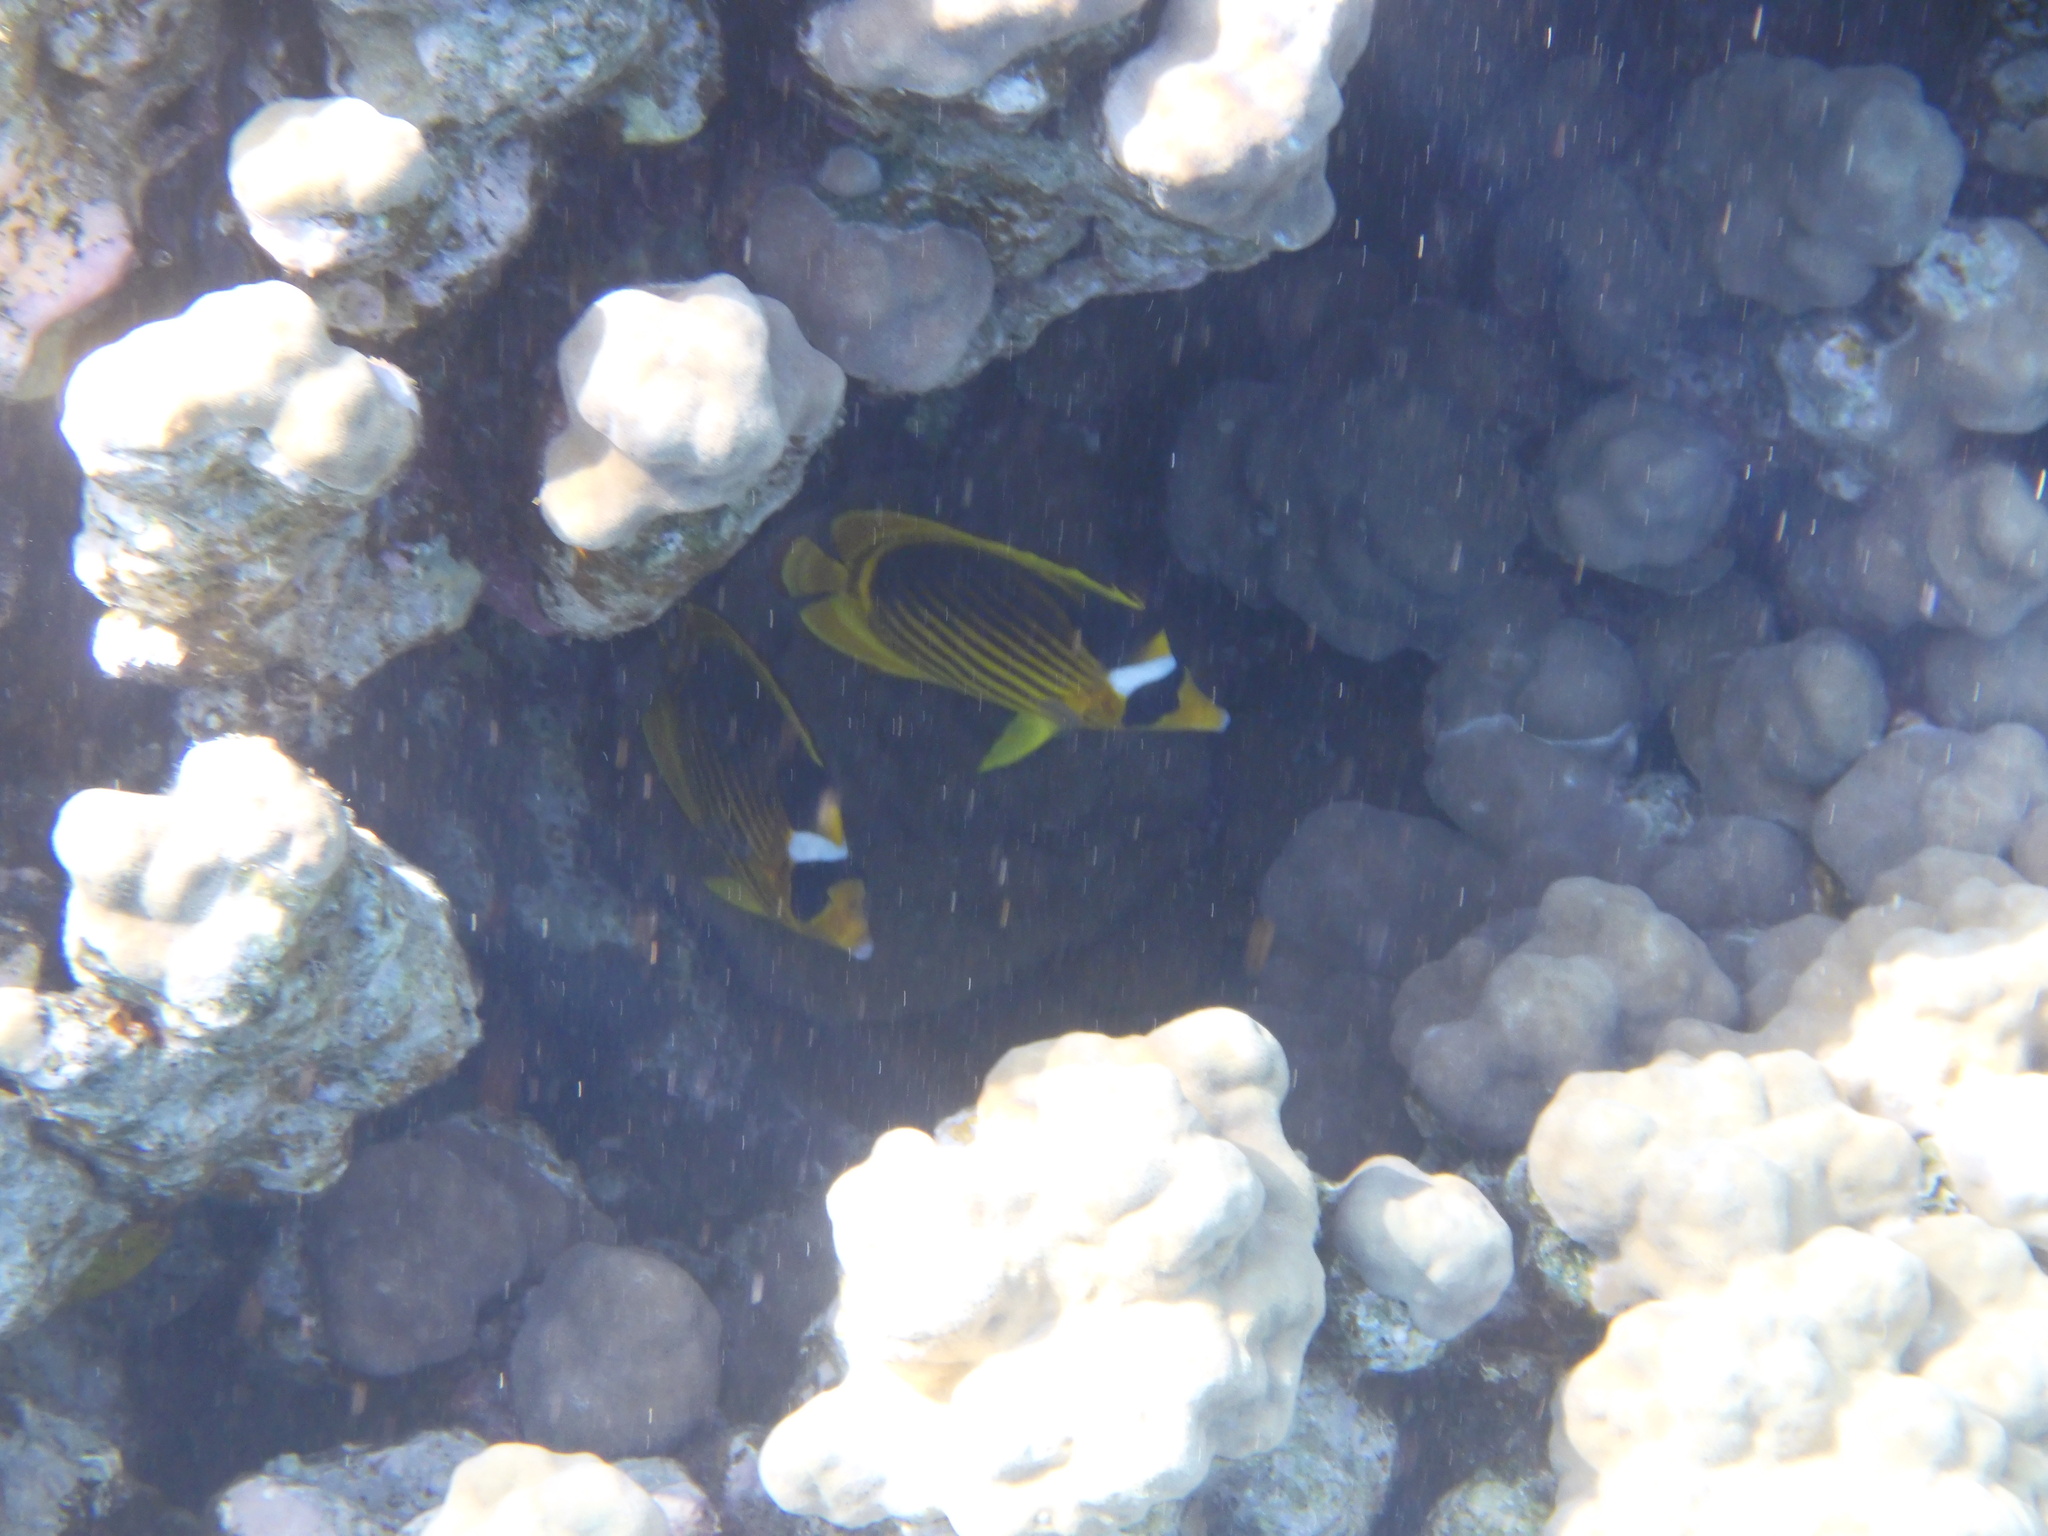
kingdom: Animalia
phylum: Chordata
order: Perciformes
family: Chaetodontidae
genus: Chaetodon
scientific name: Chaetodon fasciatus
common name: Diagonal butterflyfish
